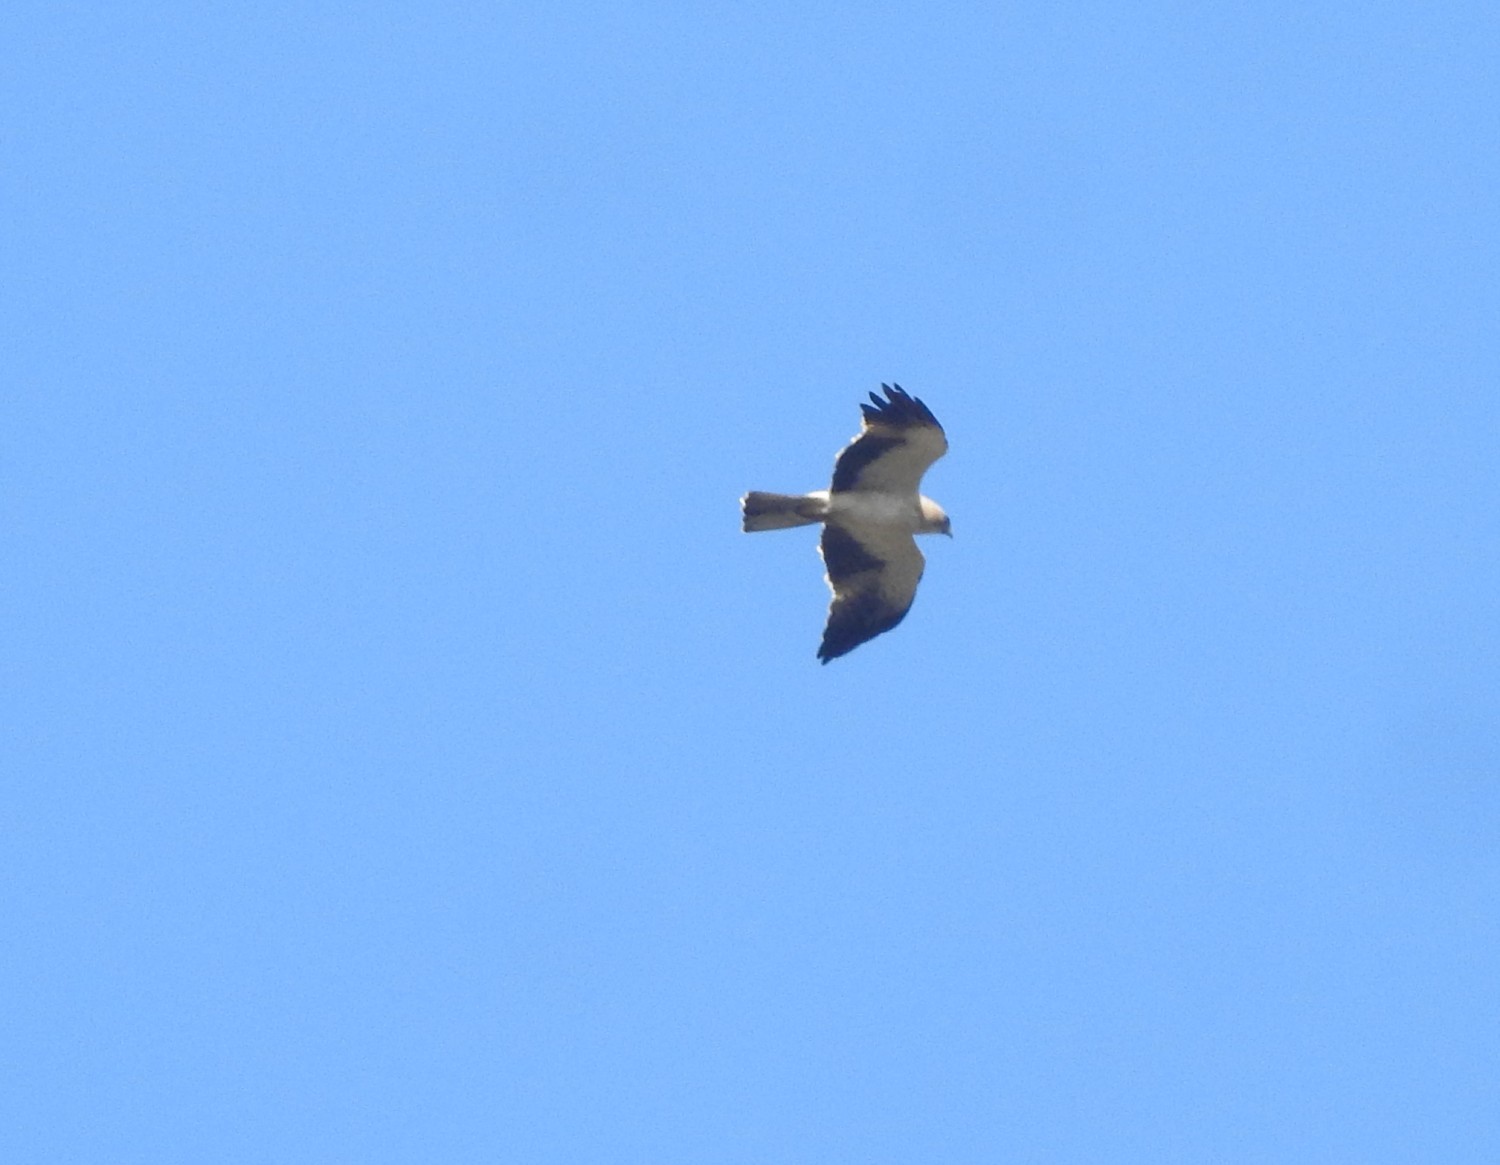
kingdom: Animalia
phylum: Chordata
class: Aves
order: Accipitriformes
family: Accipitridae
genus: Hieraaetus
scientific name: Hieraaetus pennatus
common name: Booted eagle
